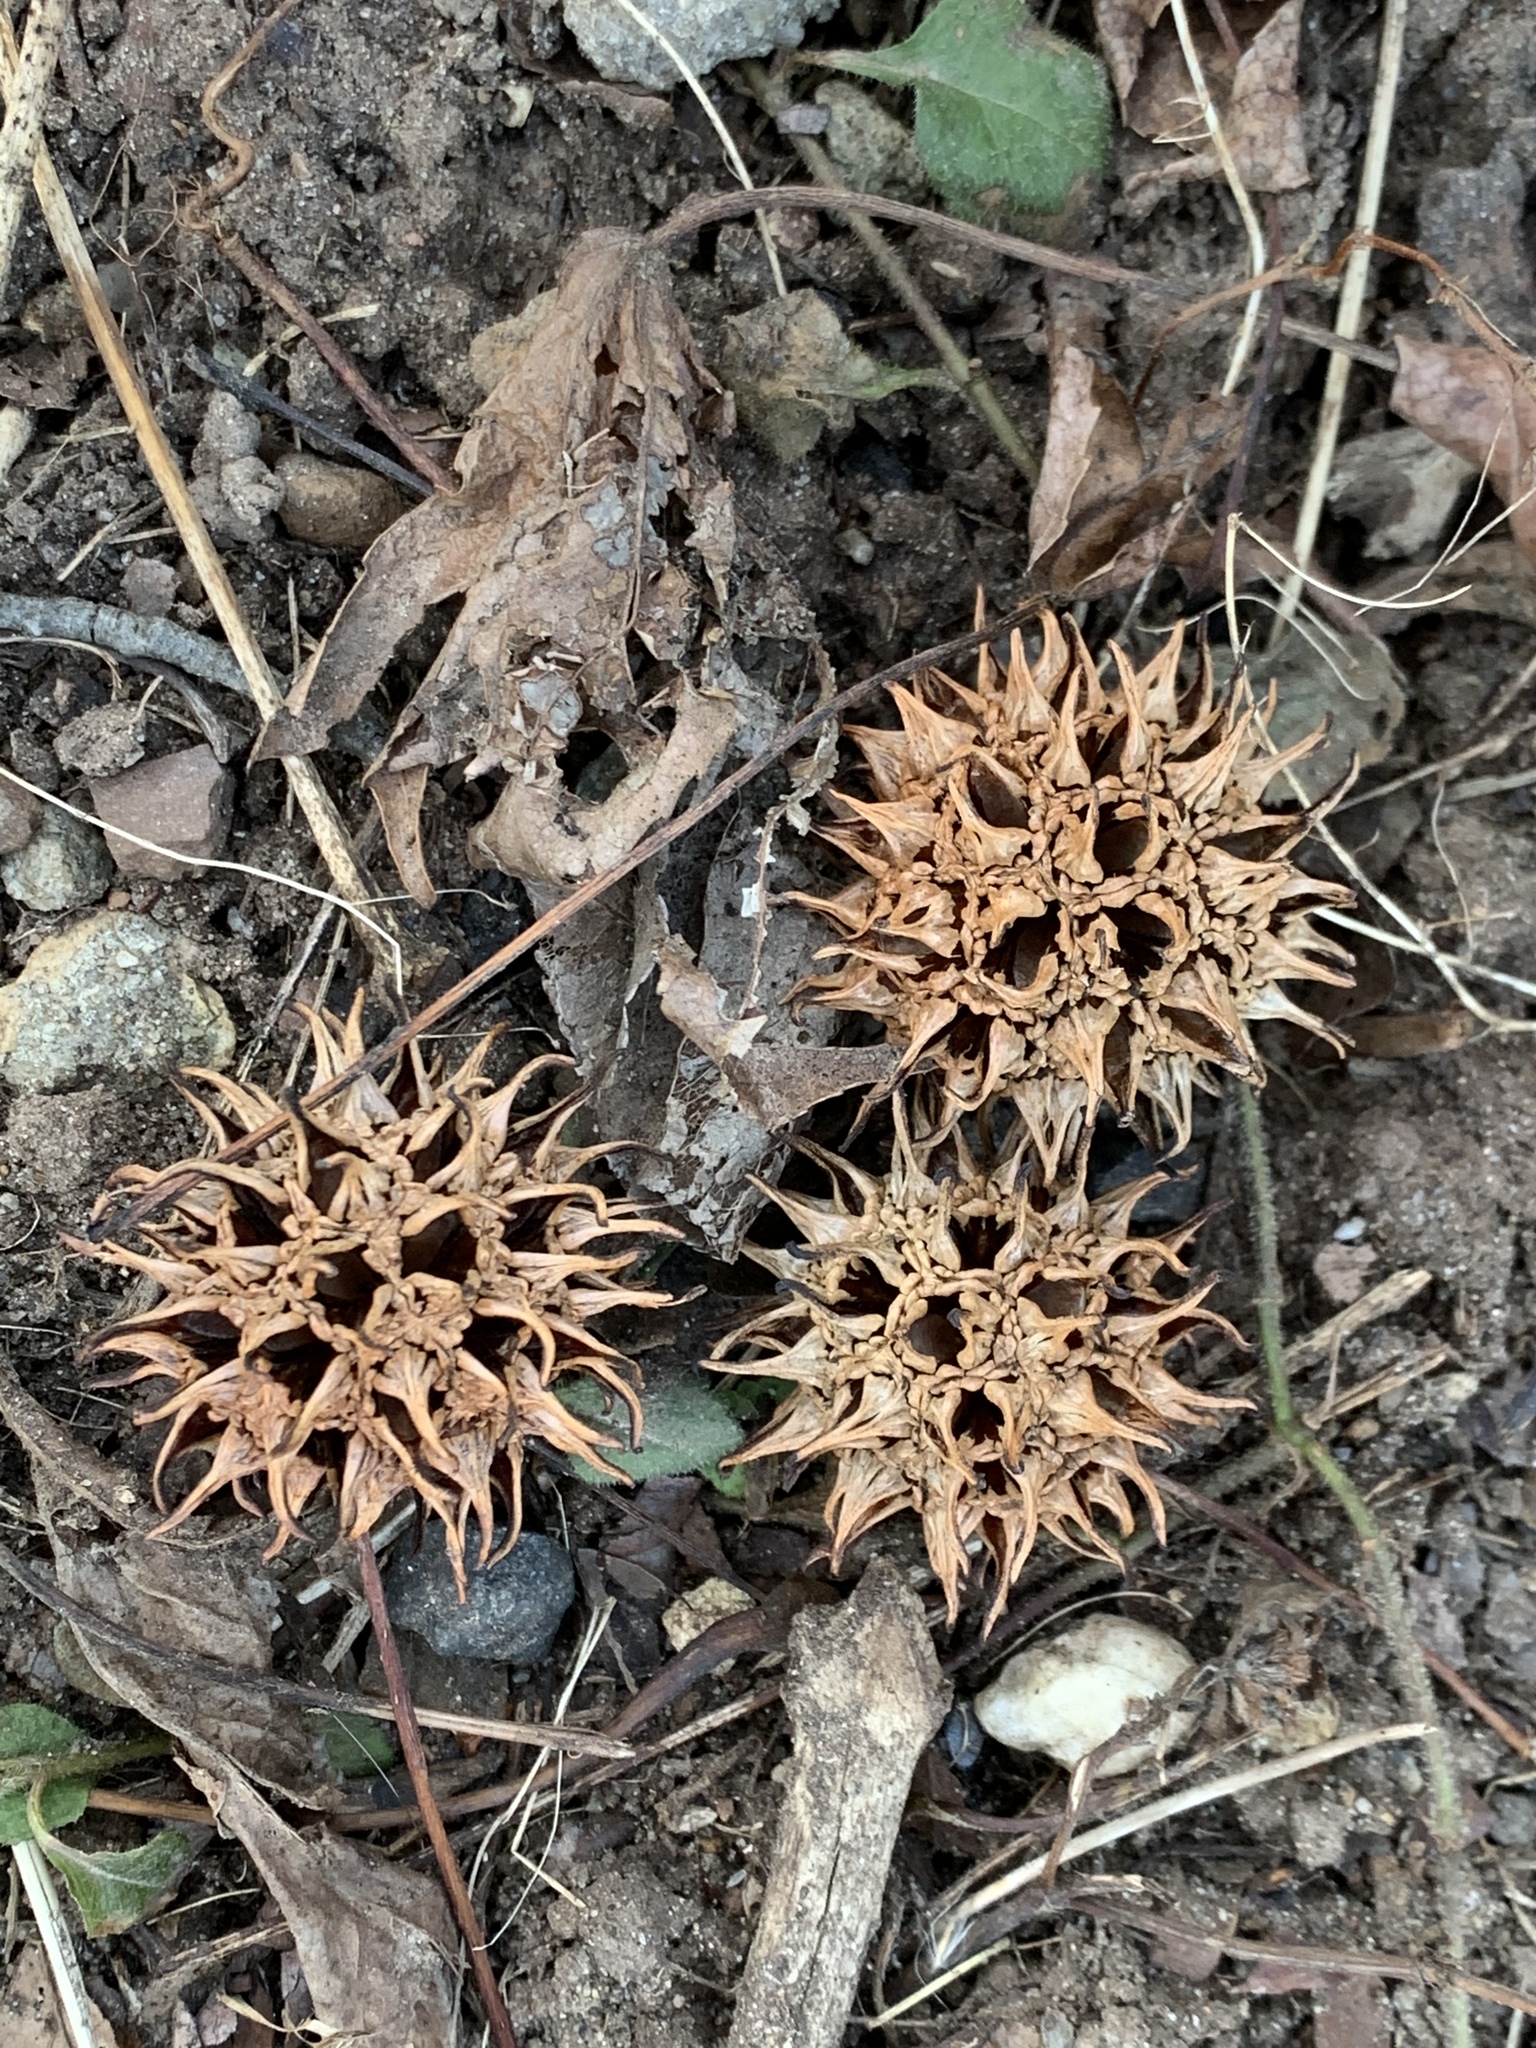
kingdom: Plantae
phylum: Tracheophyta
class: Magnoliopsida
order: Saxifragales
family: Altingiaceae
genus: Liquidambar
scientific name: Liquidambar styraciflua
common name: Sweet gum
